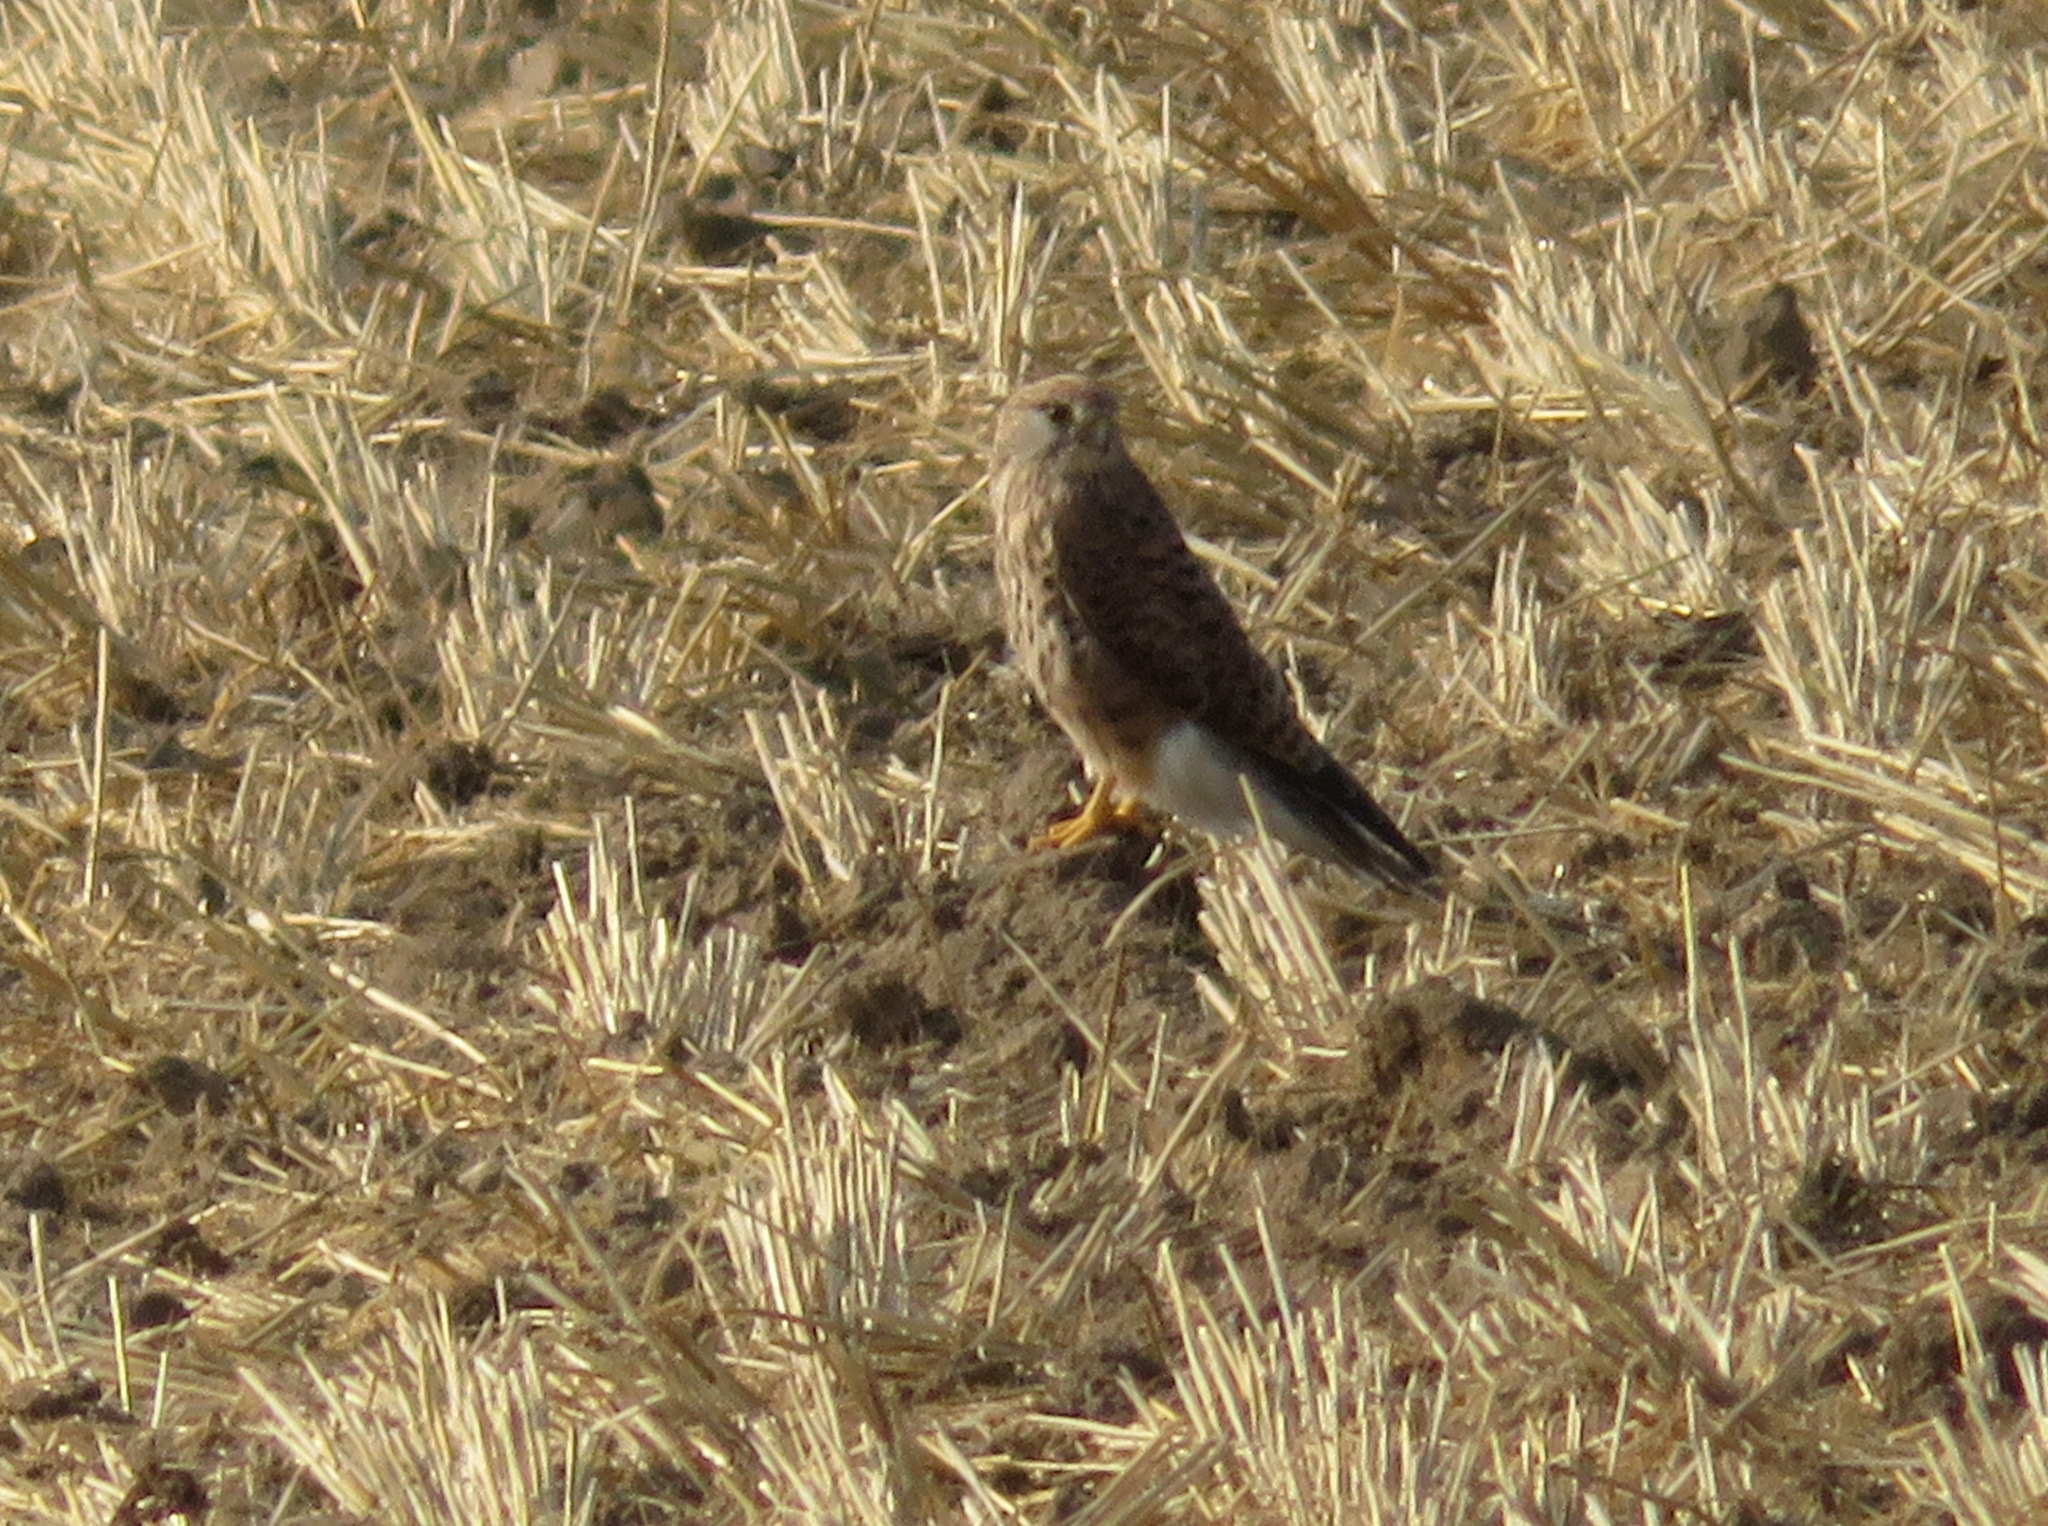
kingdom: Animalia
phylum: Chordata
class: Aves
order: Falconiformes
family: Falconidae
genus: Falco
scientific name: Falco tinnunculus
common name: Common kestrel
